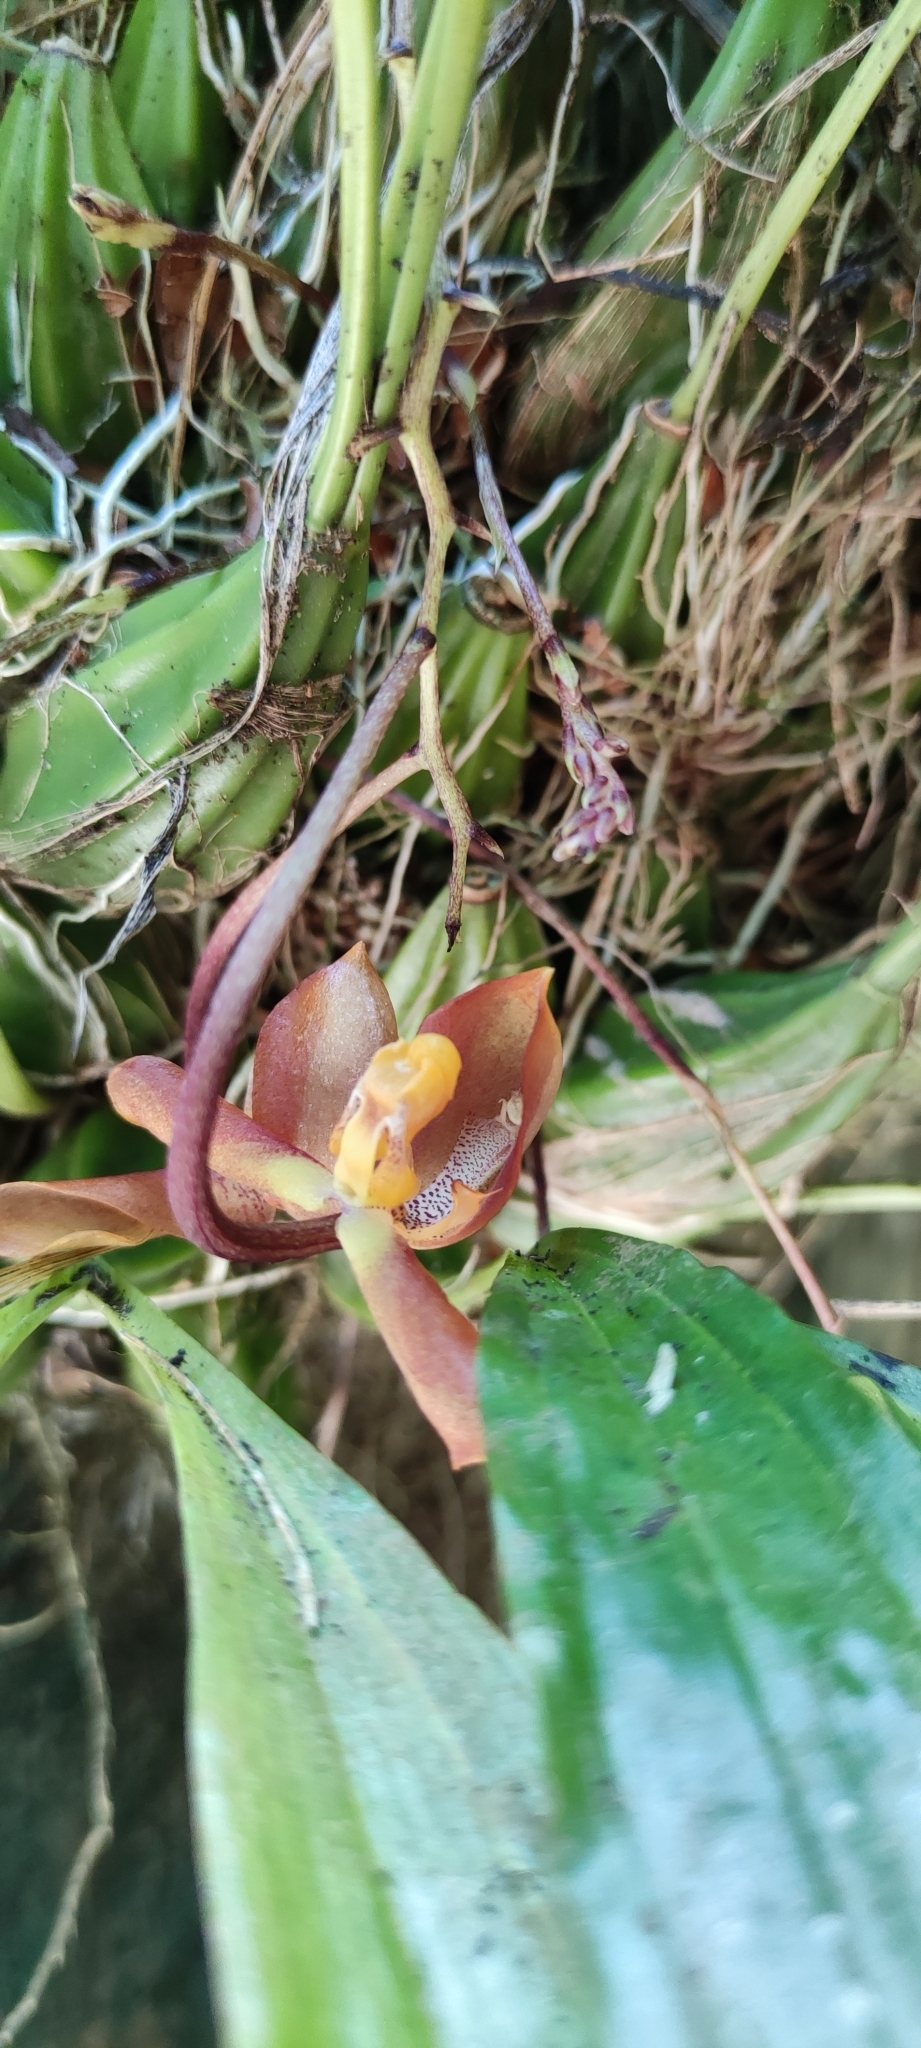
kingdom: Plantae
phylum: Tracheophyta
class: Liliopsida
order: Asparagales
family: Orchidaceae
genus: Gongora
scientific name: Gongora galeata
